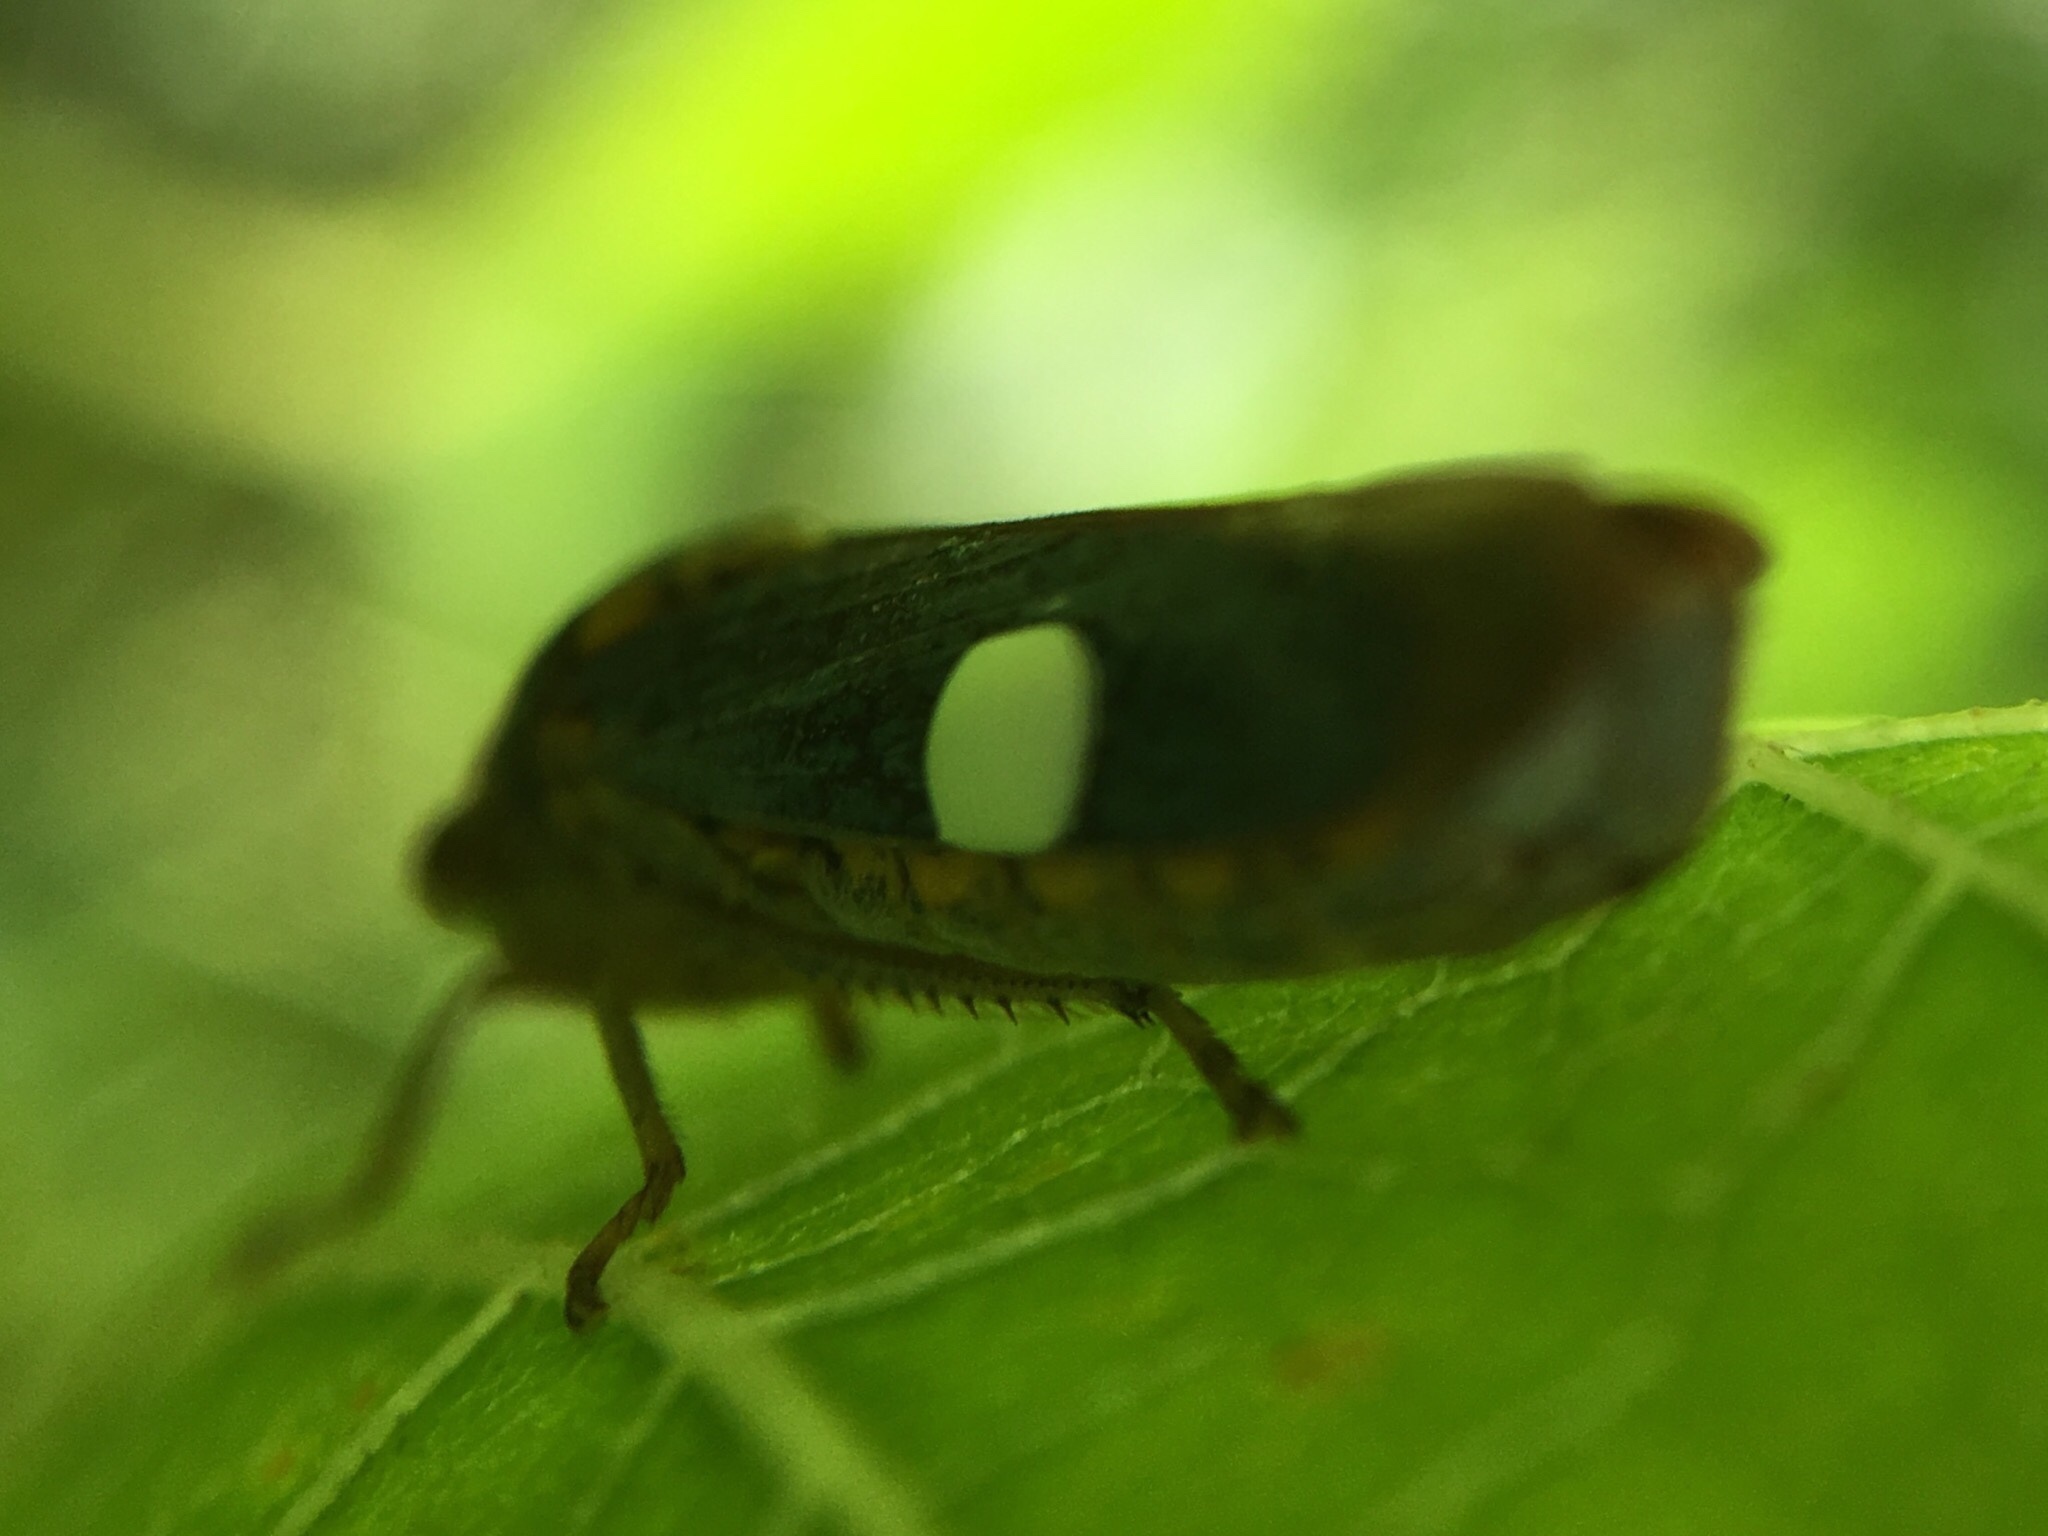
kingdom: Animalia
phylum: Arthropoda
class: Insecta
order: Hemiptera
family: Cicadellidae
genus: Oncometopia
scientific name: Oncometopia orbona
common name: Broad-headed sharpshooter
